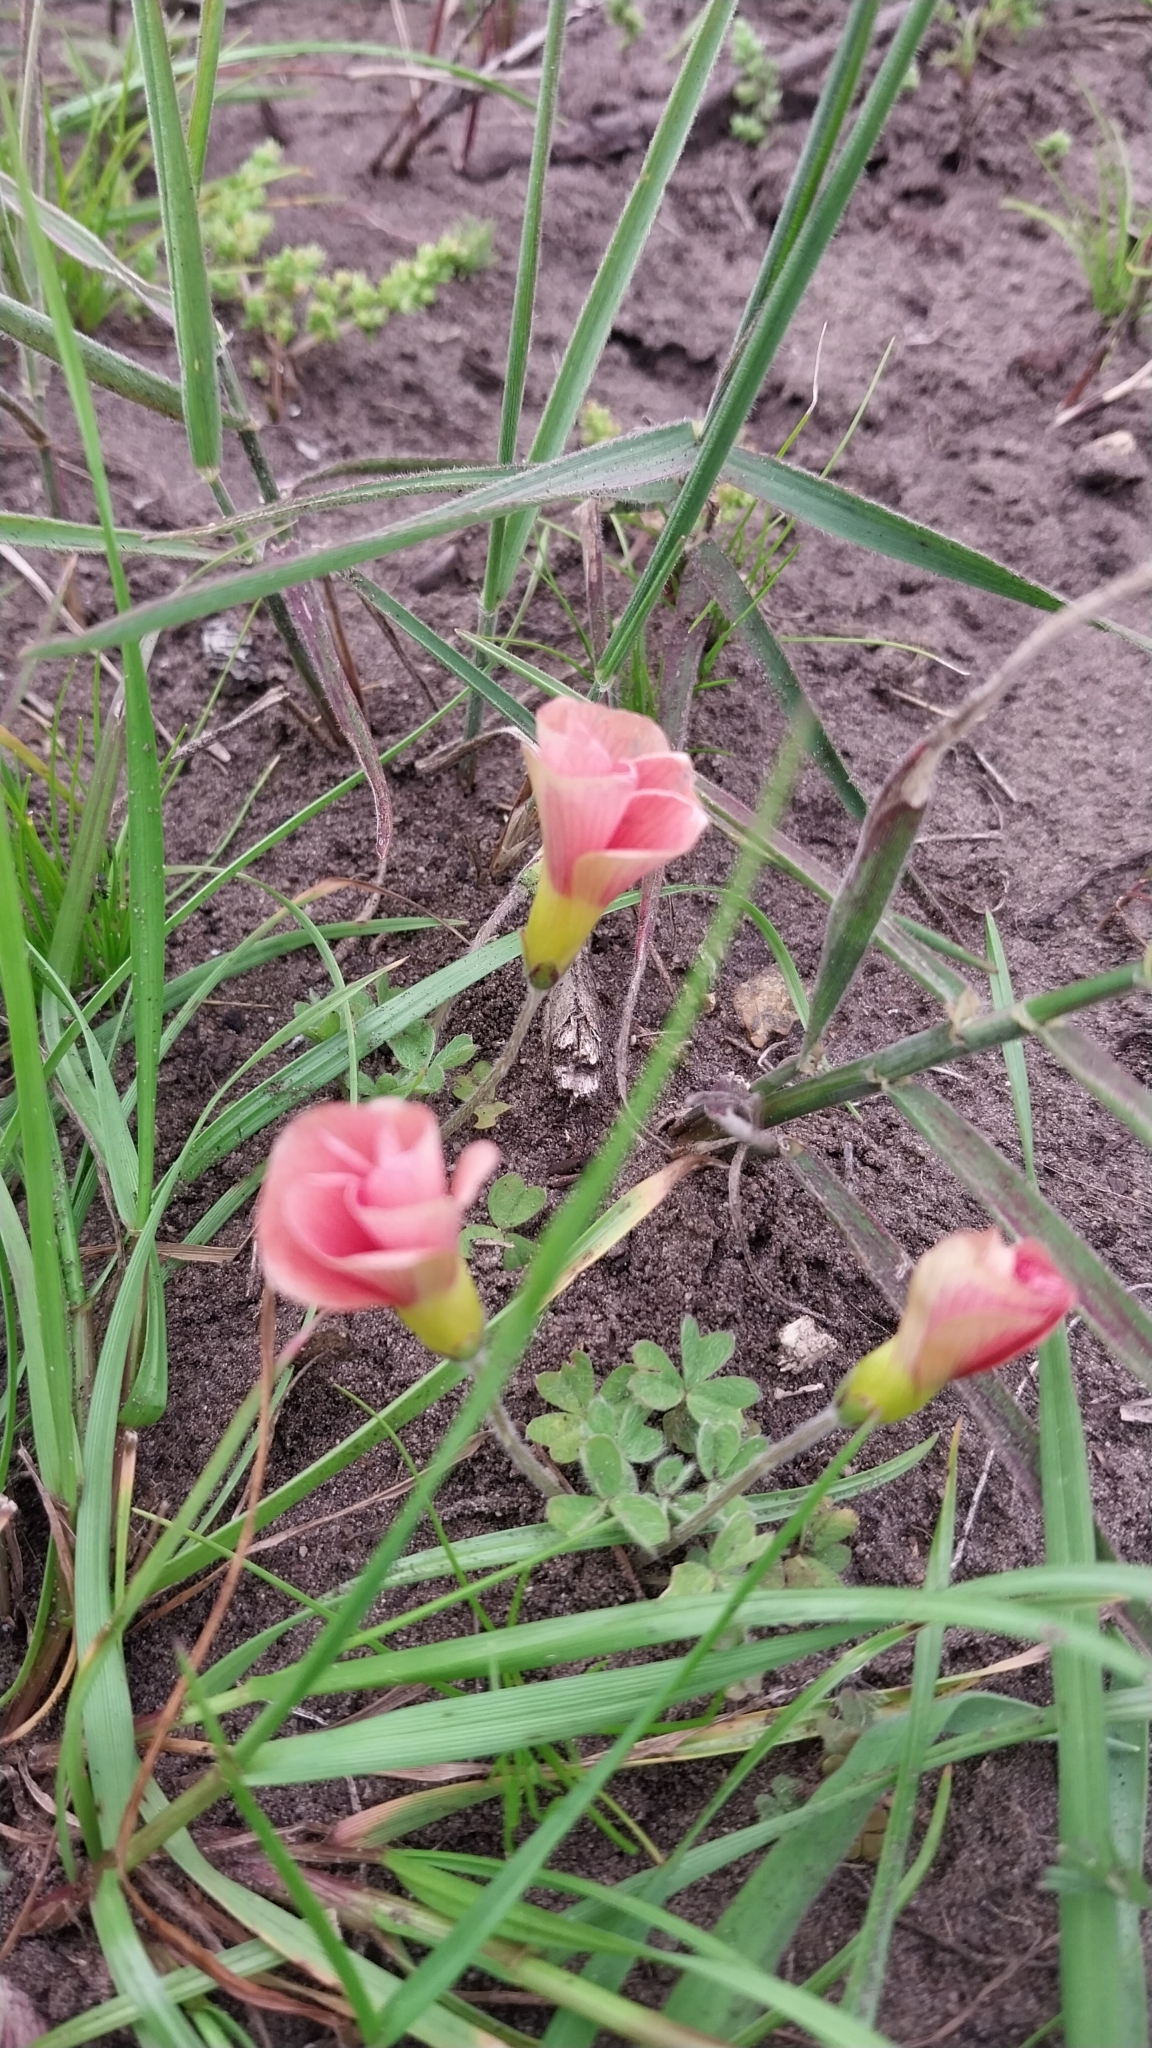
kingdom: Plantae
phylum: Tracheophyta
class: Magnoliopsida
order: Oxalidales
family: Oxalidaceae
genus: Oxalis
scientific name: Oxalis obtusa
